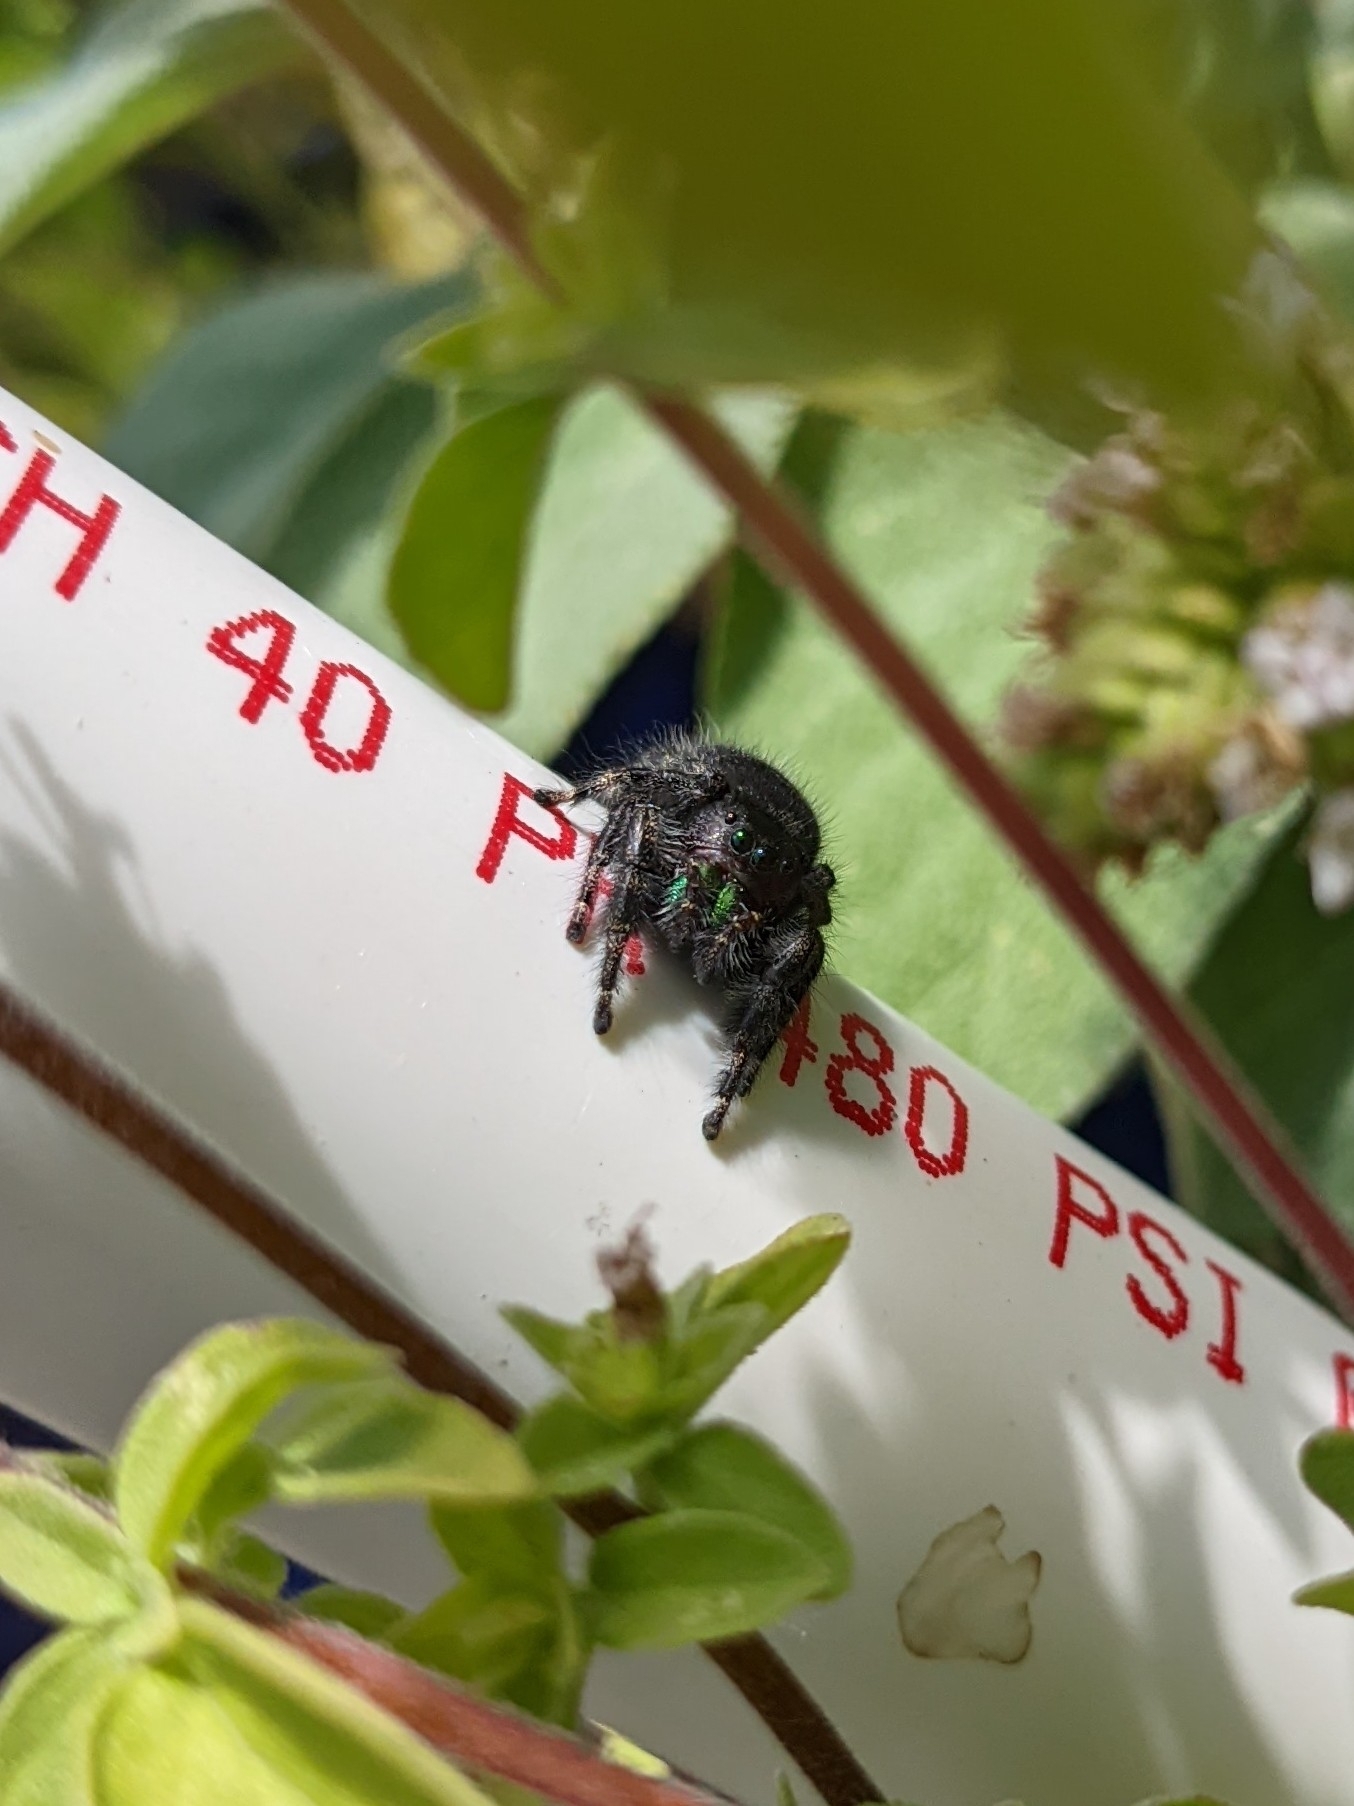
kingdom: Animalia
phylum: Arthropoda
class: Arachnida
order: Araneae
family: Salticidae
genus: Phidippus
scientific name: Phidippus audax
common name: Bold jumper
